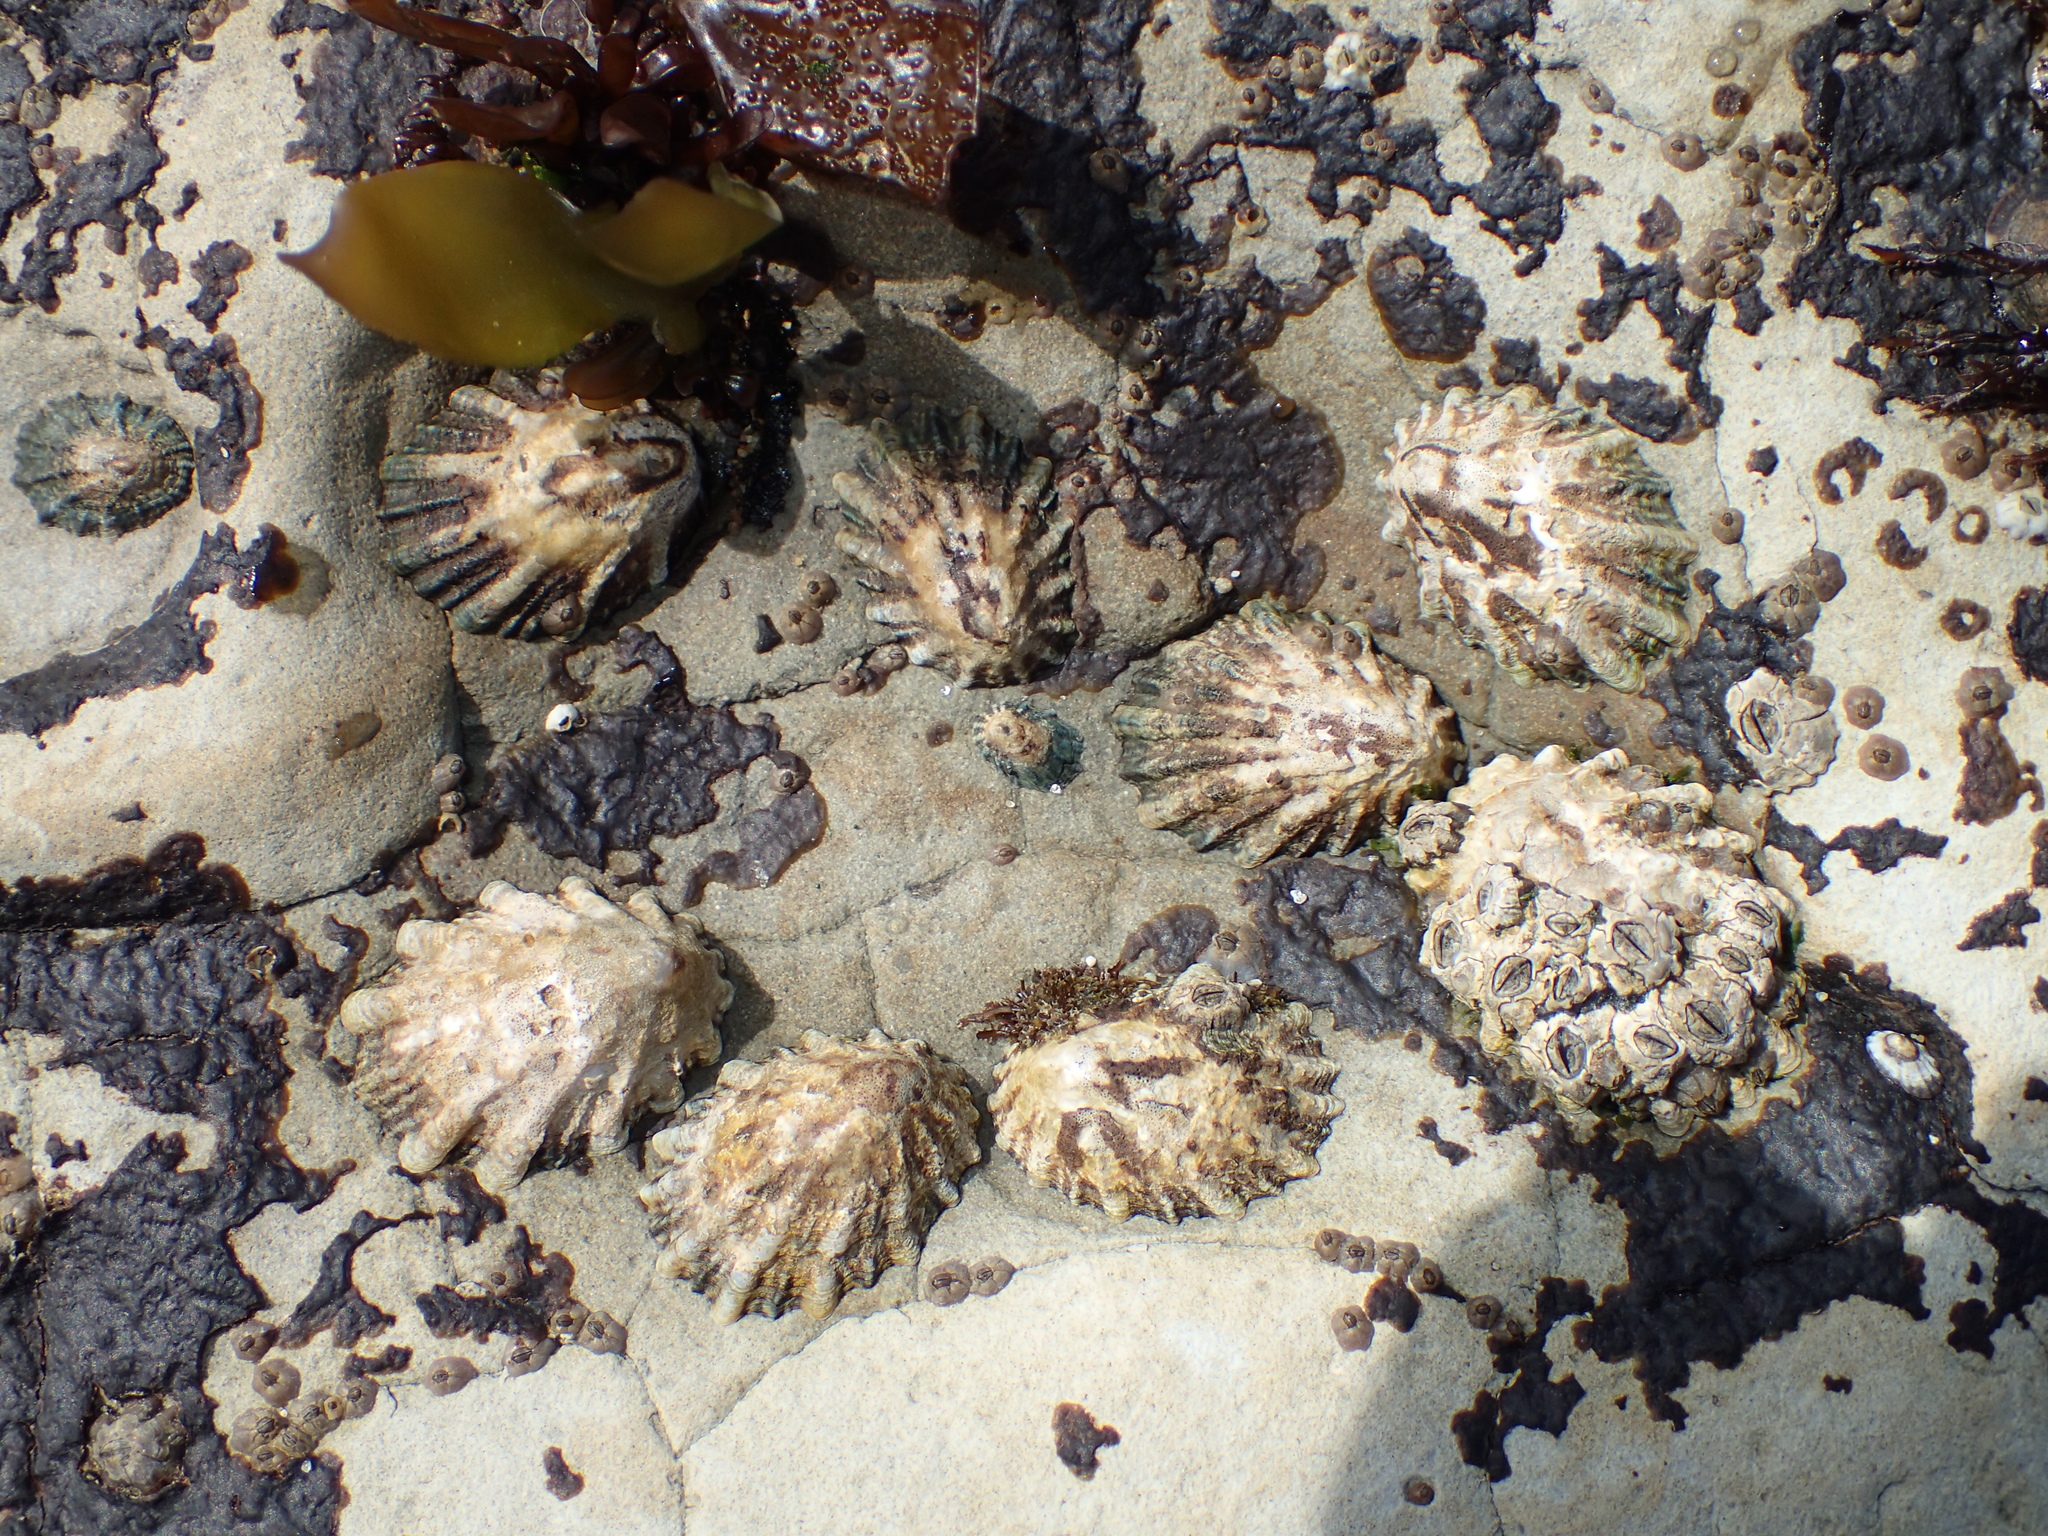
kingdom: Animalia
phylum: Mollusca
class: Gastropoda
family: Lottiidae
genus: Lottia
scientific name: Lottia scabra
